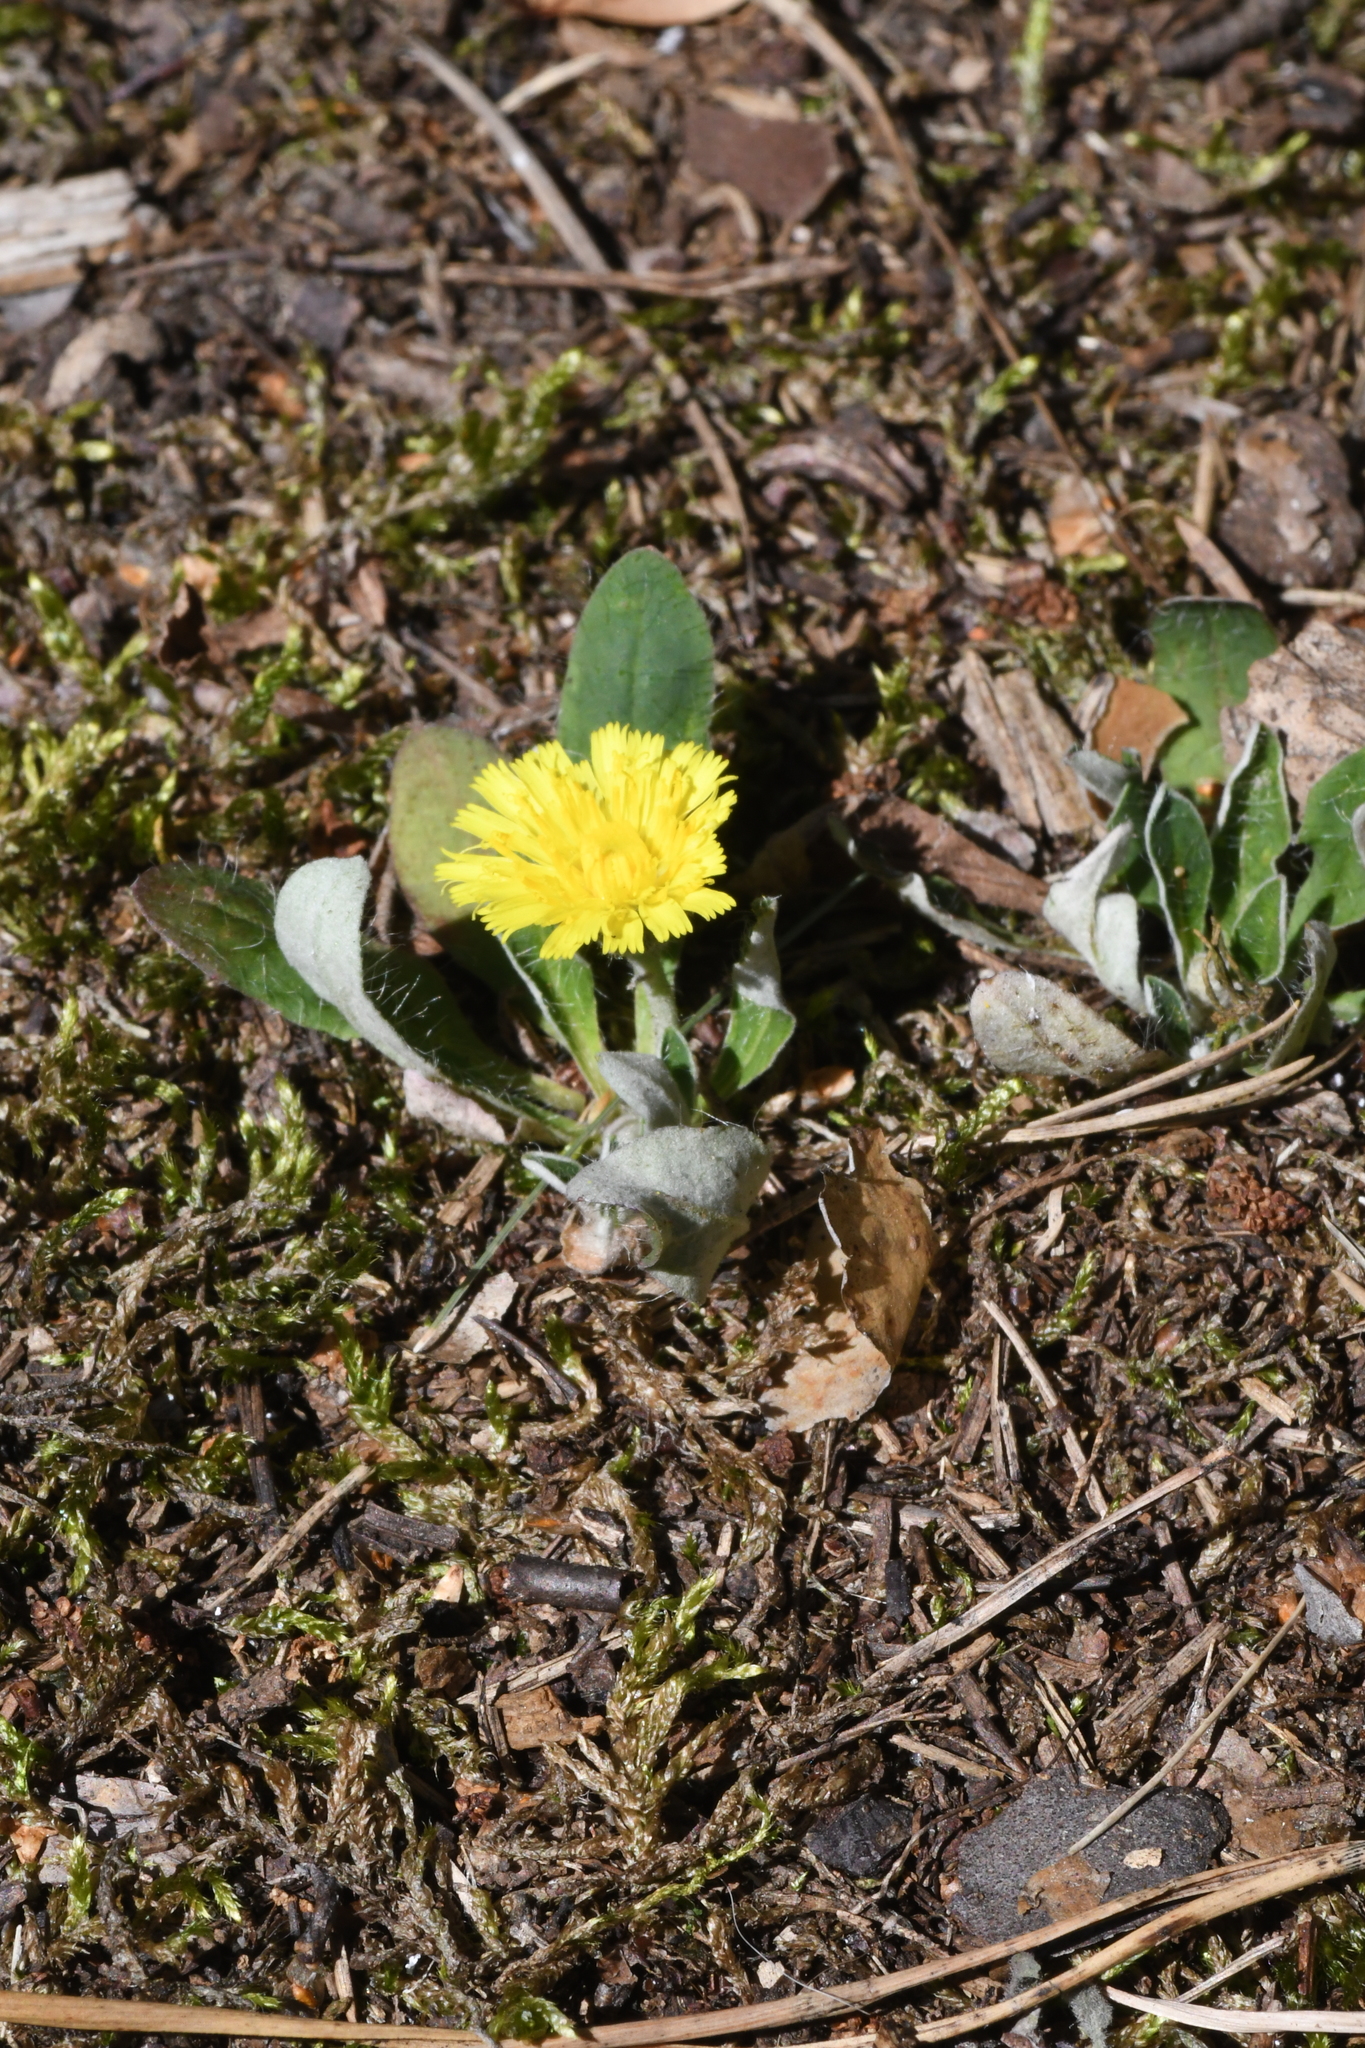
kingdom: Plantae
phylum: Tracheophyta
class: Magnoliopsida
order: Asterales
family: Asteraceae
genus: Pilosella
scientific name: Pilosella officinarum
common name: Mouse-ear hawkweed
